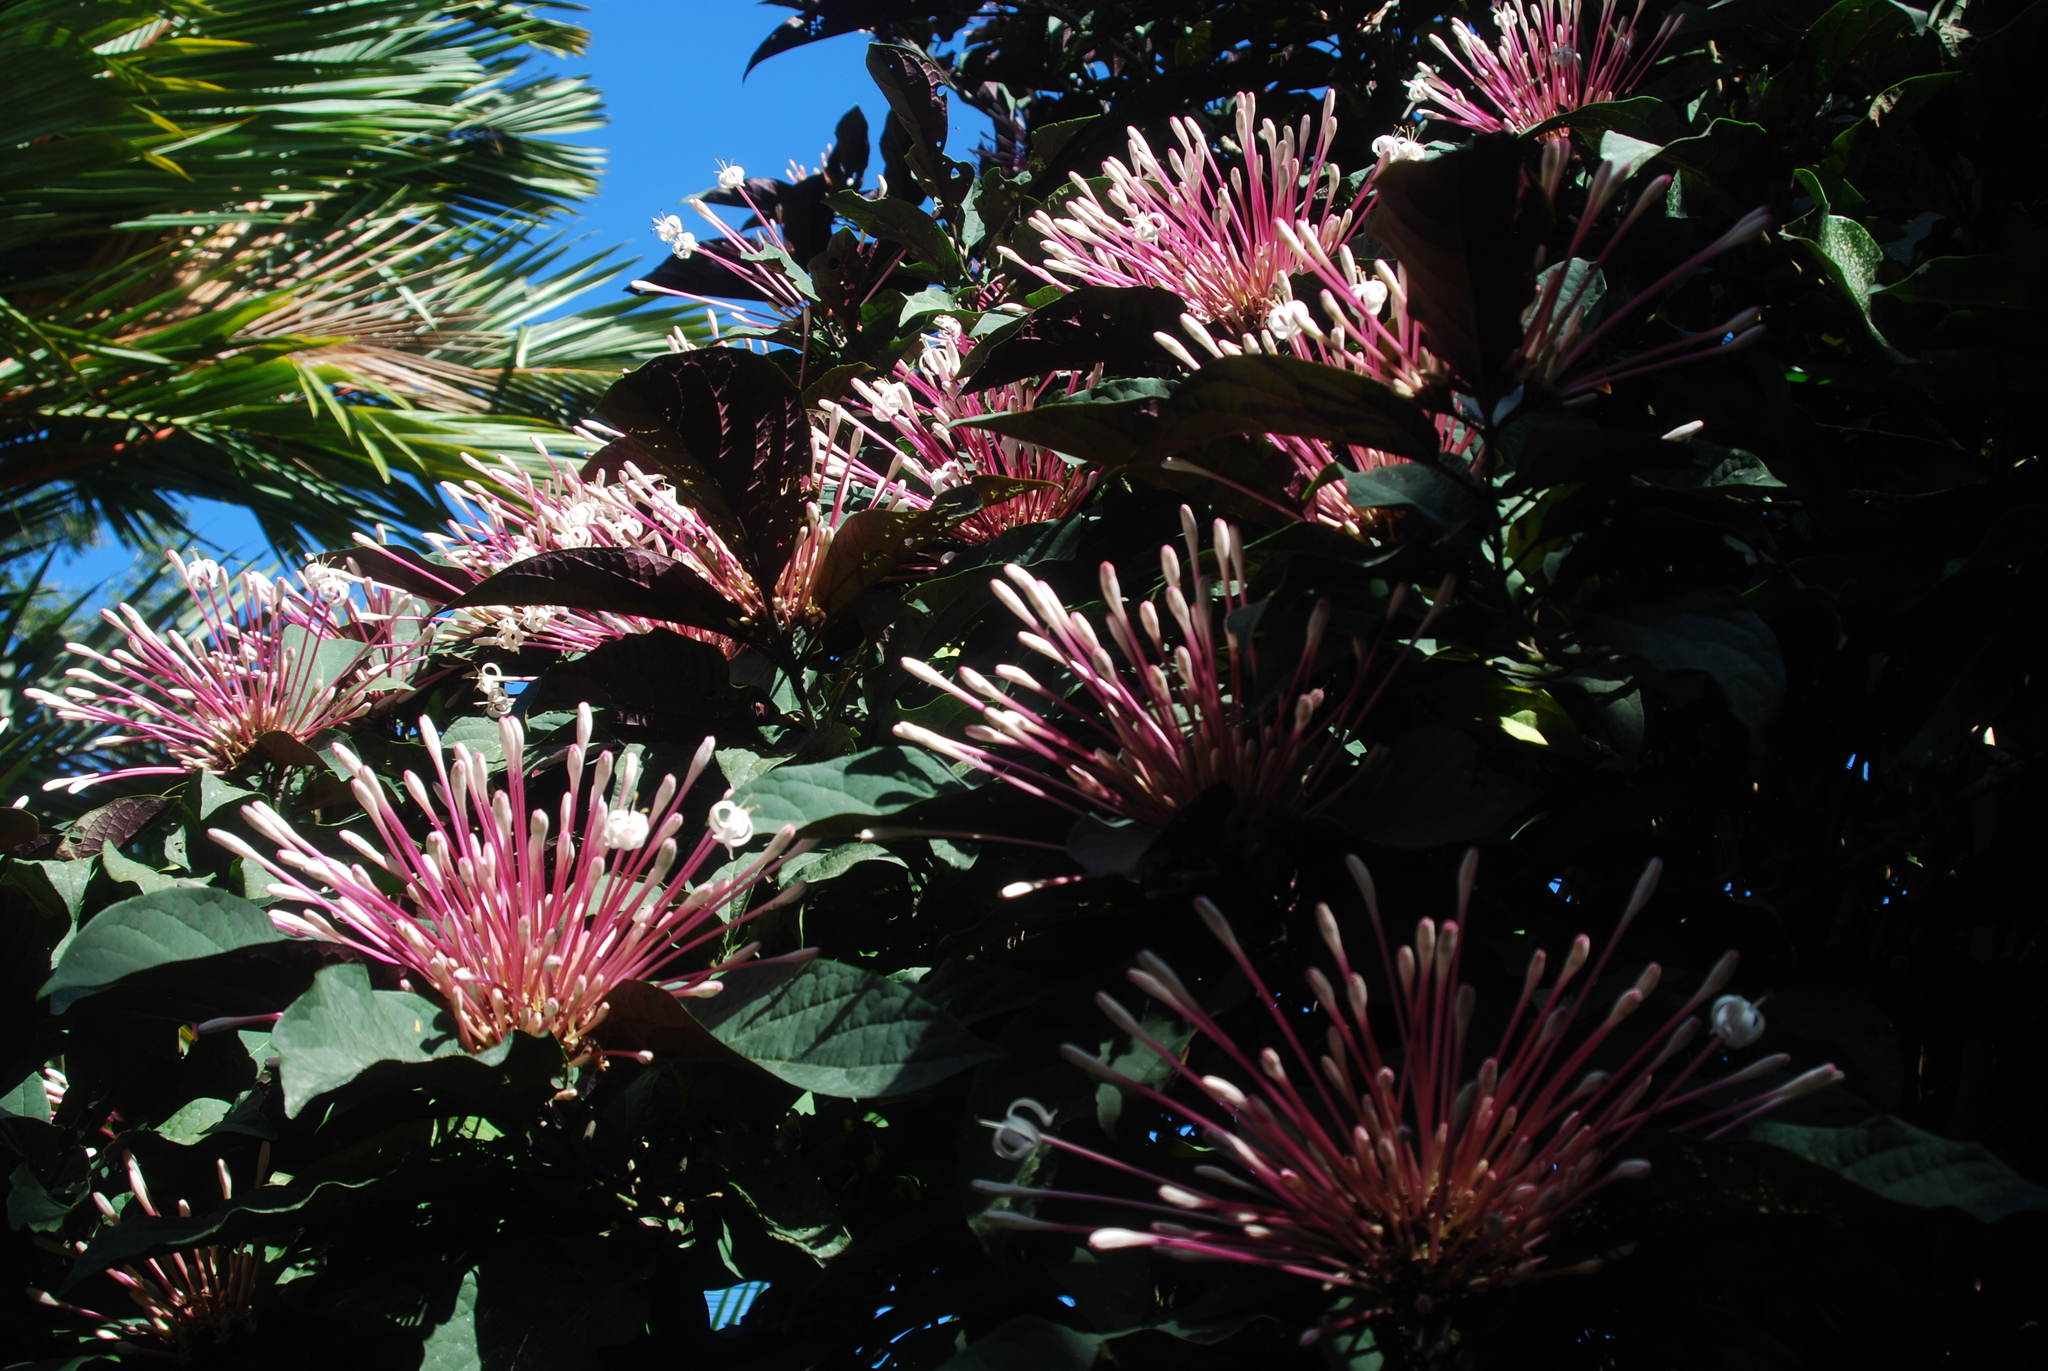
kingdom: Plantae
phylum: Tracheophyta
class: Magnoliopsida
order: Lamiales
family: Lamiaceae
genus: Clerodendrum
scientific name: Clerodendrum quadriloculare
